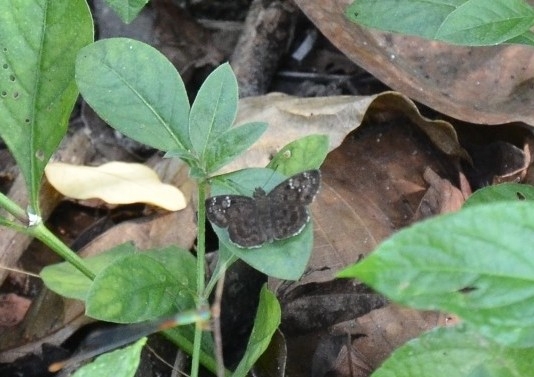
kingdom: Animalia
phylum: Arthropoda
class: Insecta
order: Lepidoptera
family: Hesperiidae
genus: Sarangesa
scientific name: Sarangesa dasahara
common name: Common small flat
